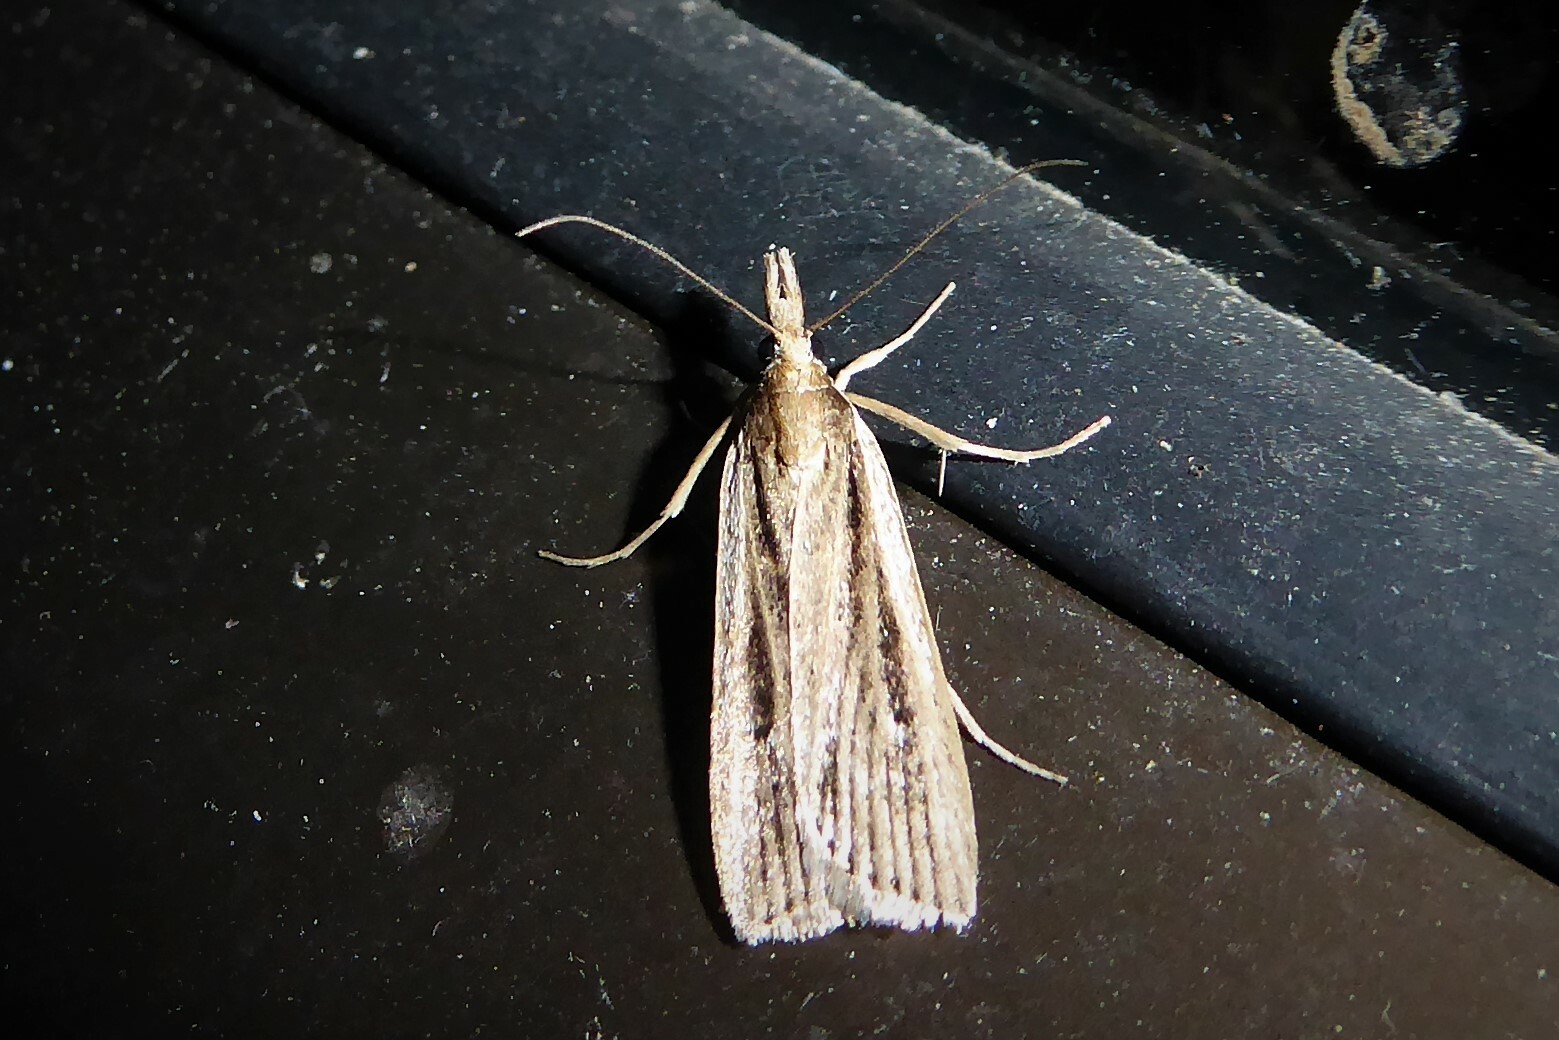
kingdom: Animalia
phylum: Arthropoda
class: Insecta
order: Lepidoptera
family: Crambidae
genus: Eudonia
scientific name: Eudonia sabulosella
